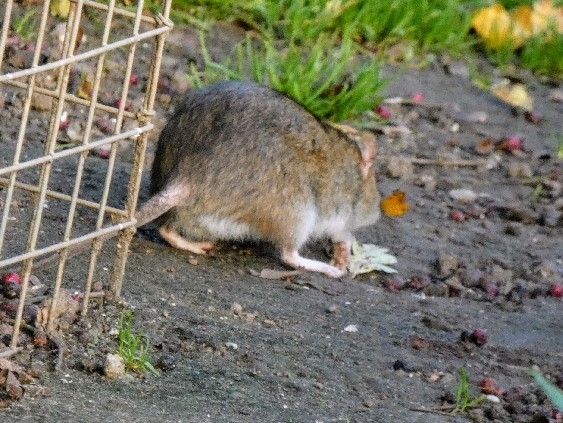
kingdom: Animalia
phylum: Chordata
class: Mammalia
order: Rodentia
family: Muridae
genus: Rattus
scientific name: Rattus norvegicus
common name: Brown rat
